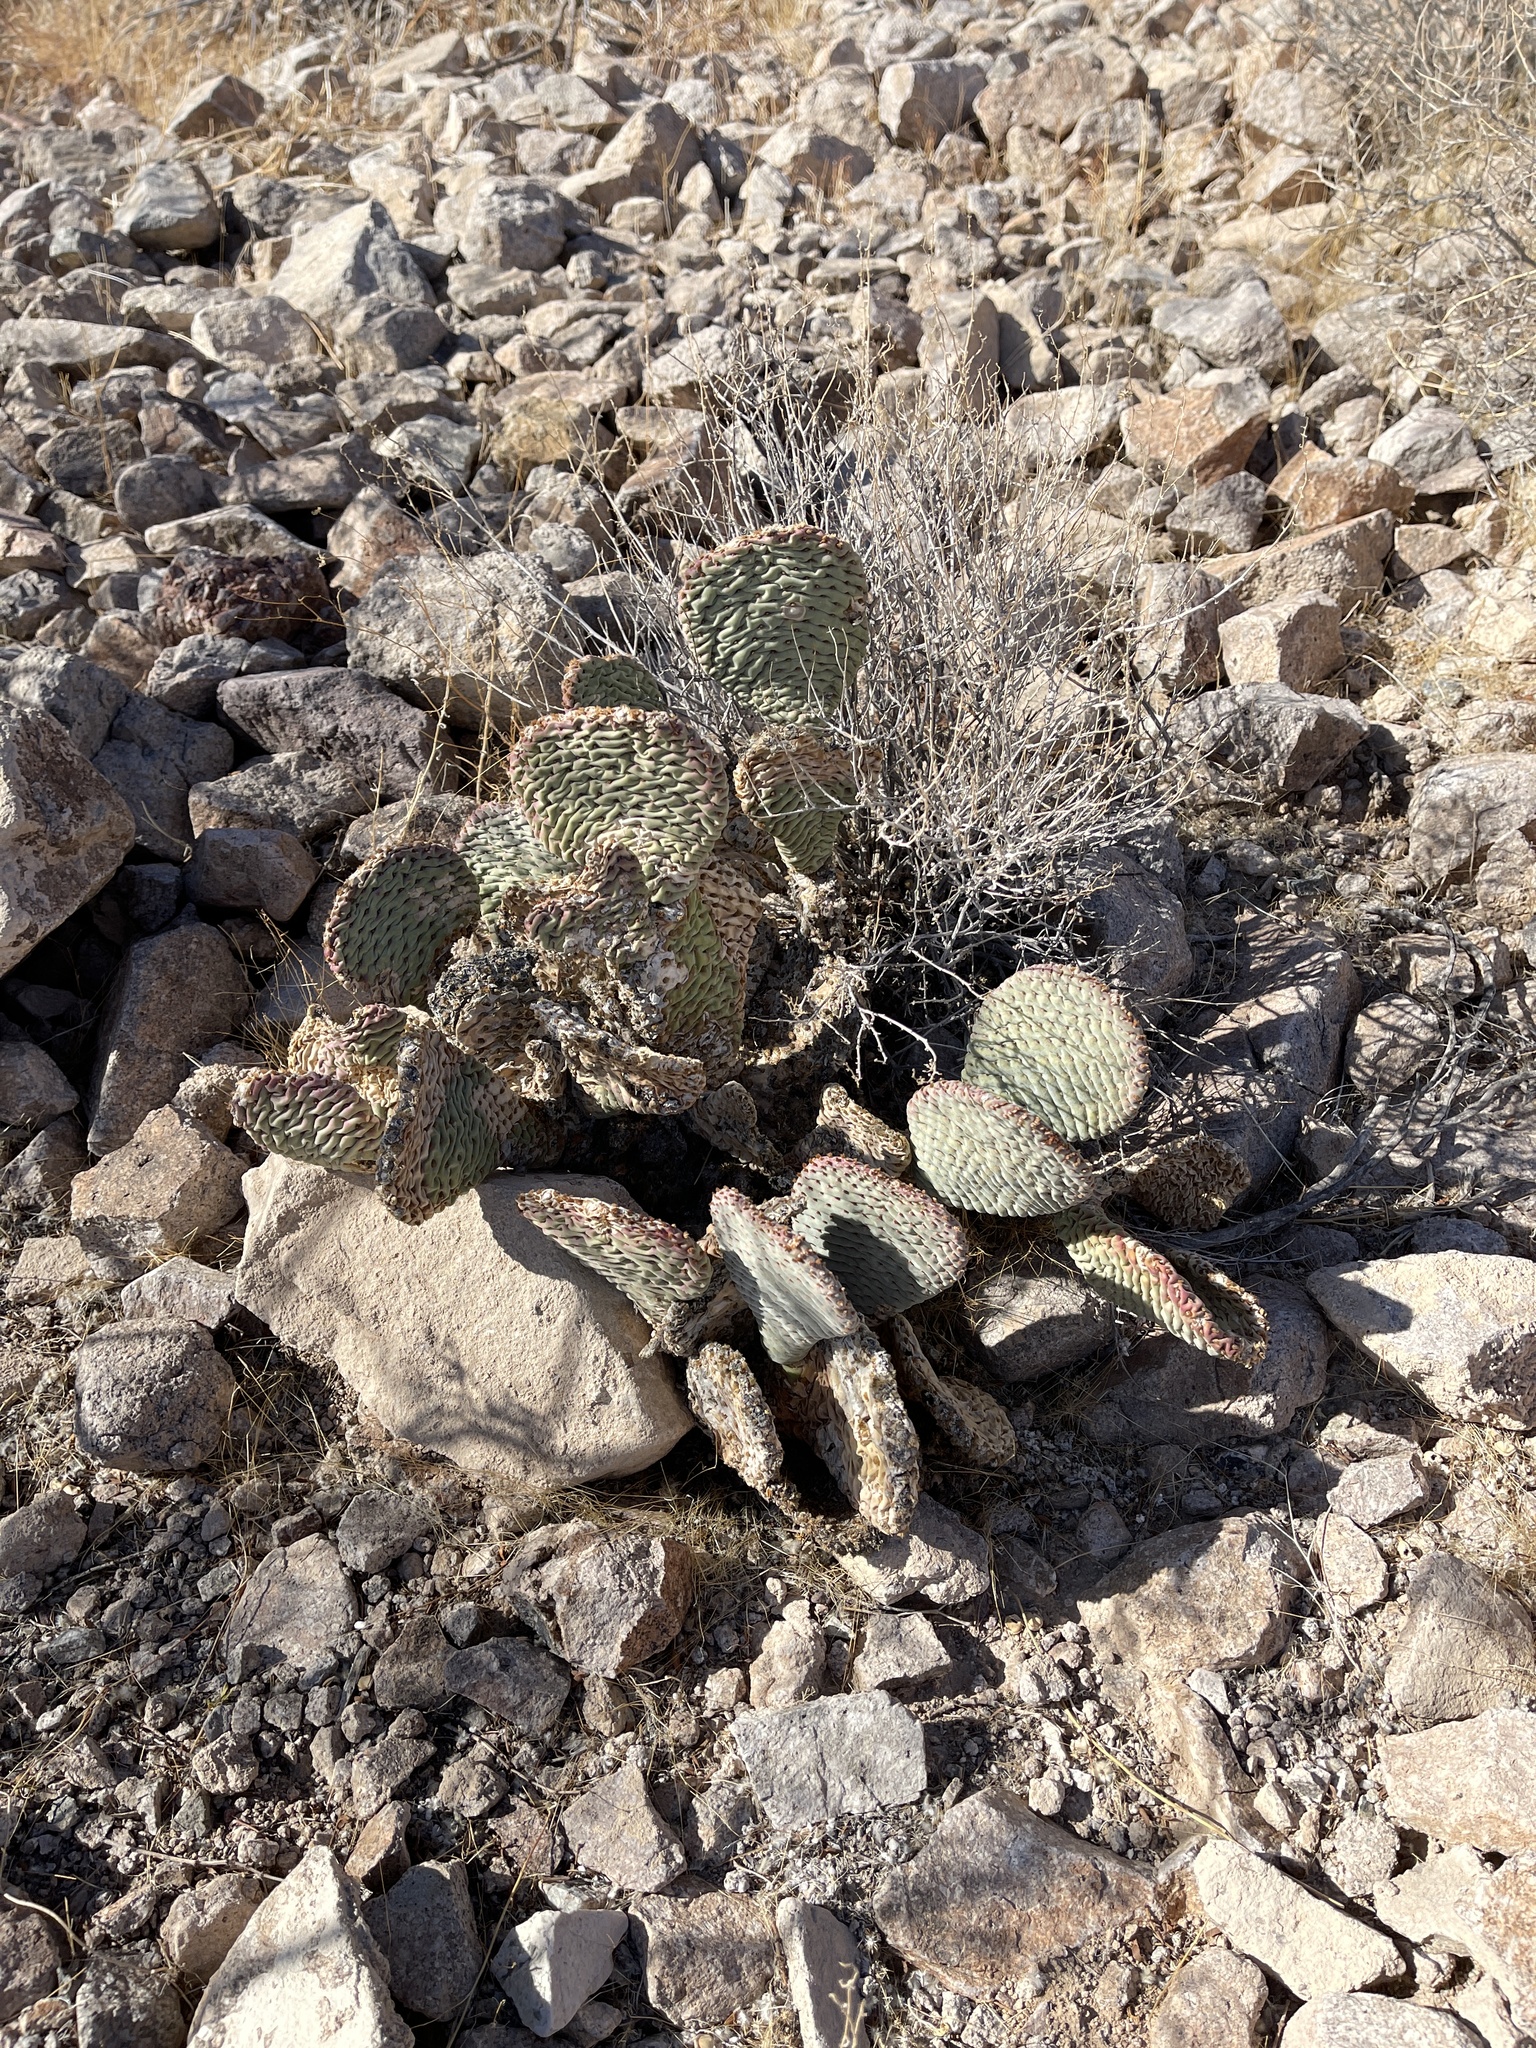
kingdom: Plantae
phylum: Tracheophyta
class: Magnoliopsida
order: Caryophyllales
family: Cactaceae
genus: Opuntia
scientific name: Opuntia basilaris
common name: Beavertail prickly-pear
